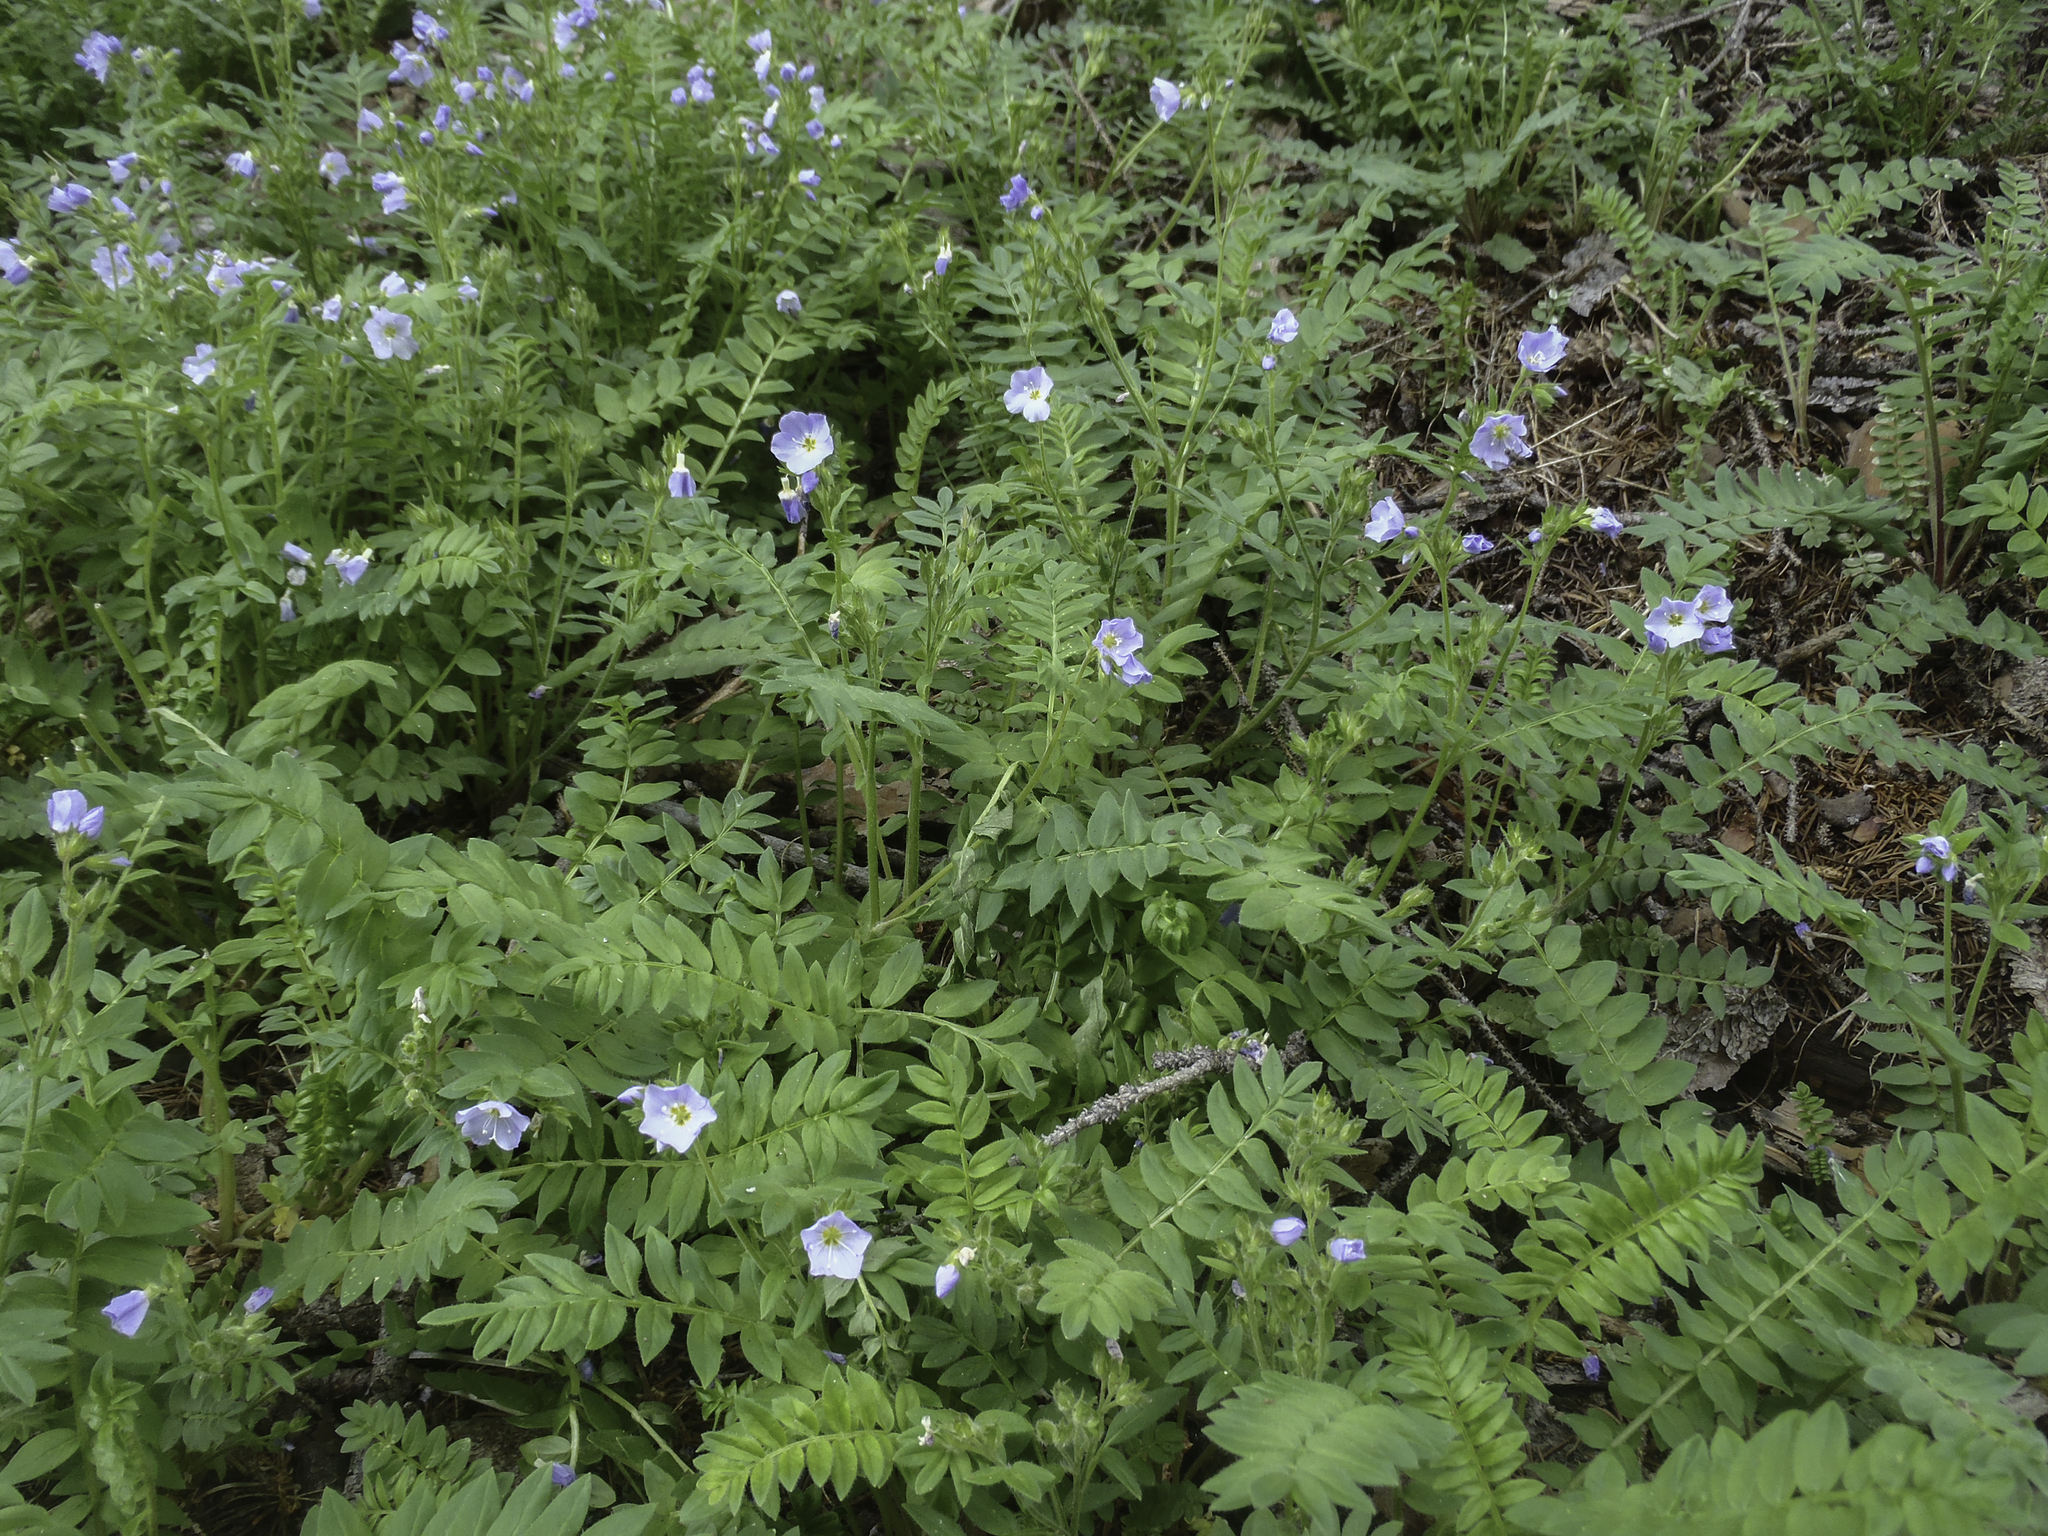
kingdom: Plantae
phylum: Tracheophyta
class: Magnoliopsida
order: Ericales
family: Polemoniaceae
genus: Polemonium
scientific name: Polemonium pulcherrimum
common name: Short jacob's-ladder
